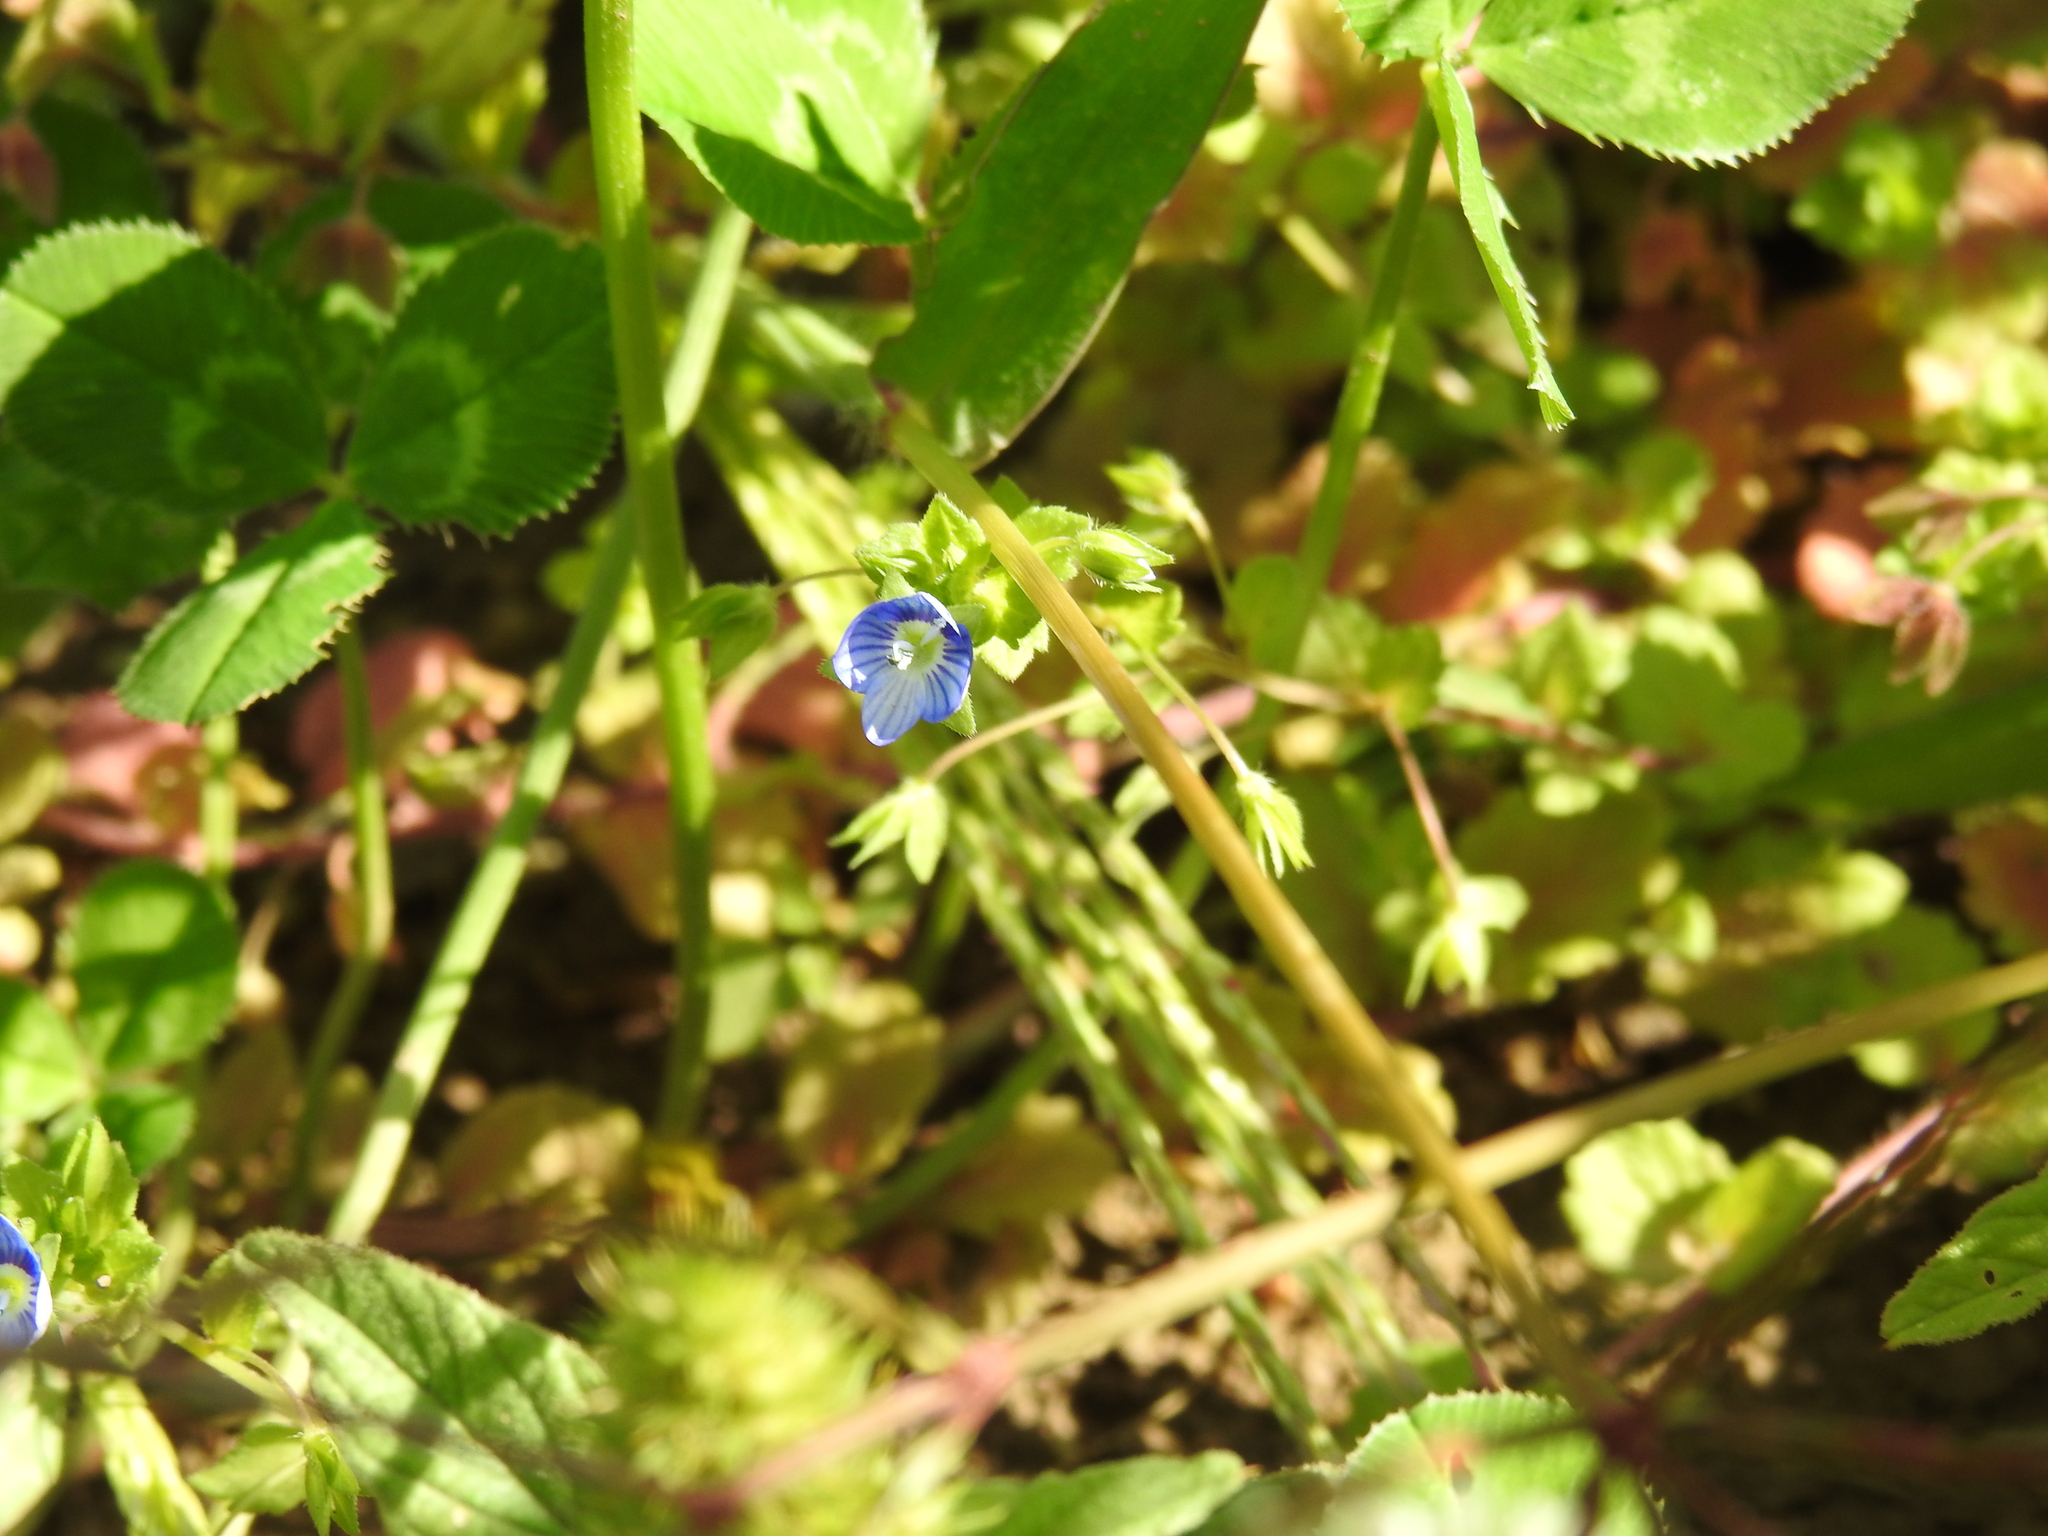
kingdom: Plantae
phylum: Tracheophyta
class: Magnoliopsida
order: Lamiales
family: Plantaginaceae
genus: Veronica
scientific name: Veronica persica
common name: Common field-speedwell
